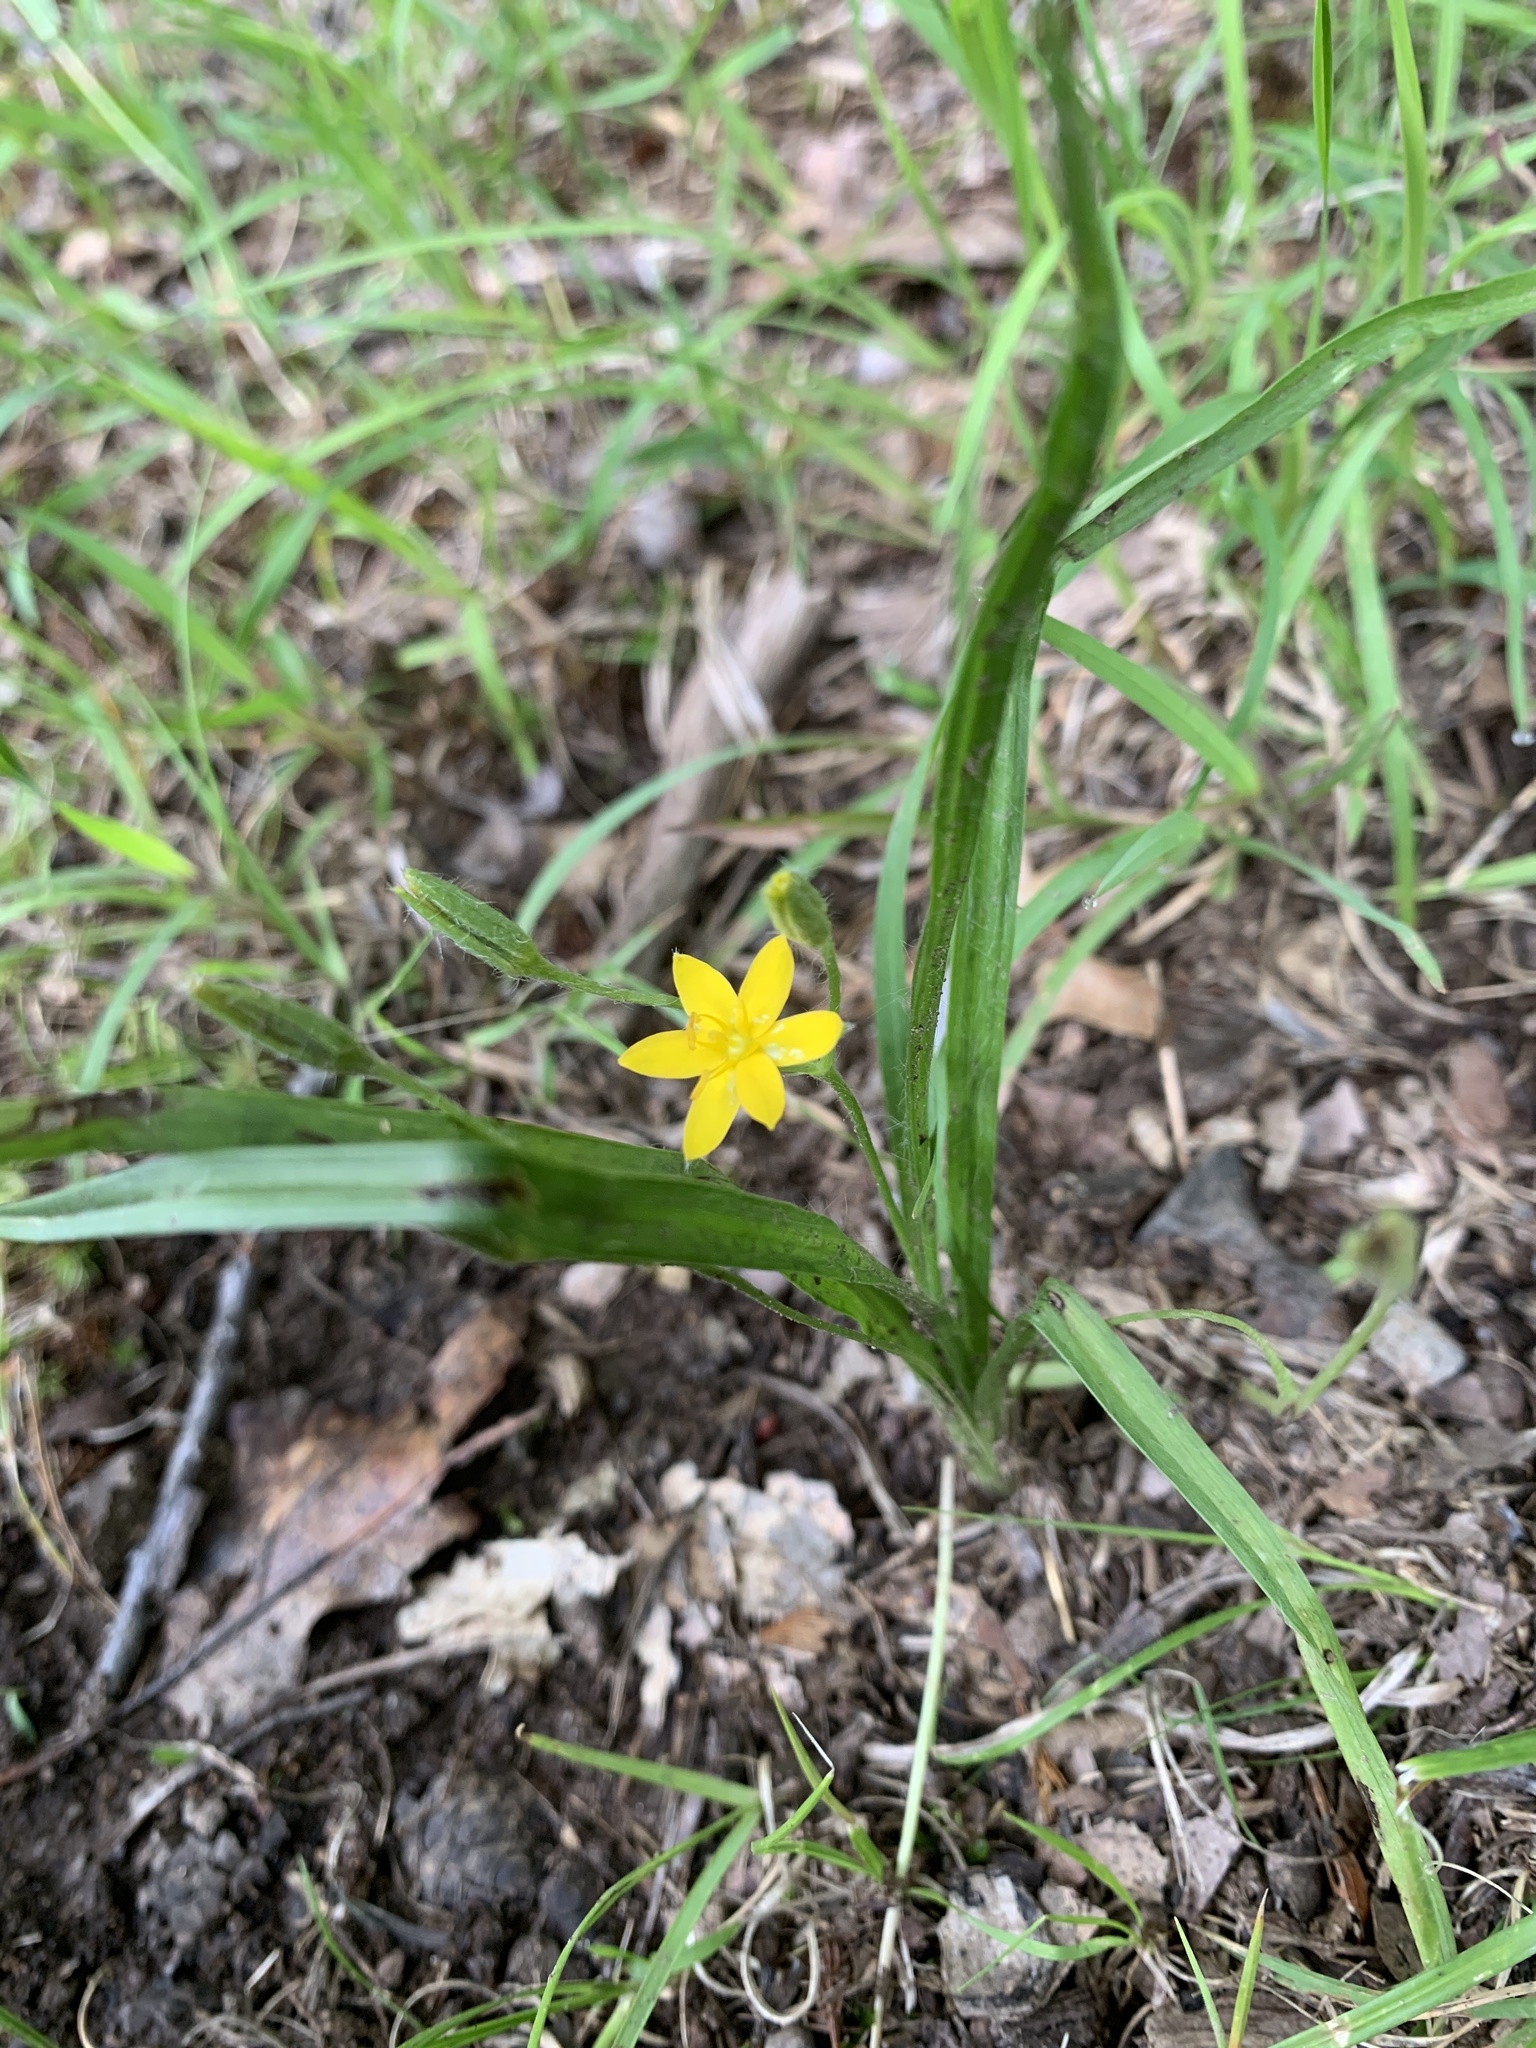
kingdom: Plantae
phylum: Tracheophyta
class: Liliopsida
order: Asparagales
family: Hypoxidaceae
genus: Hypoxis
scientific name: Hypoxis hirsuta
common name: Common goldstar
